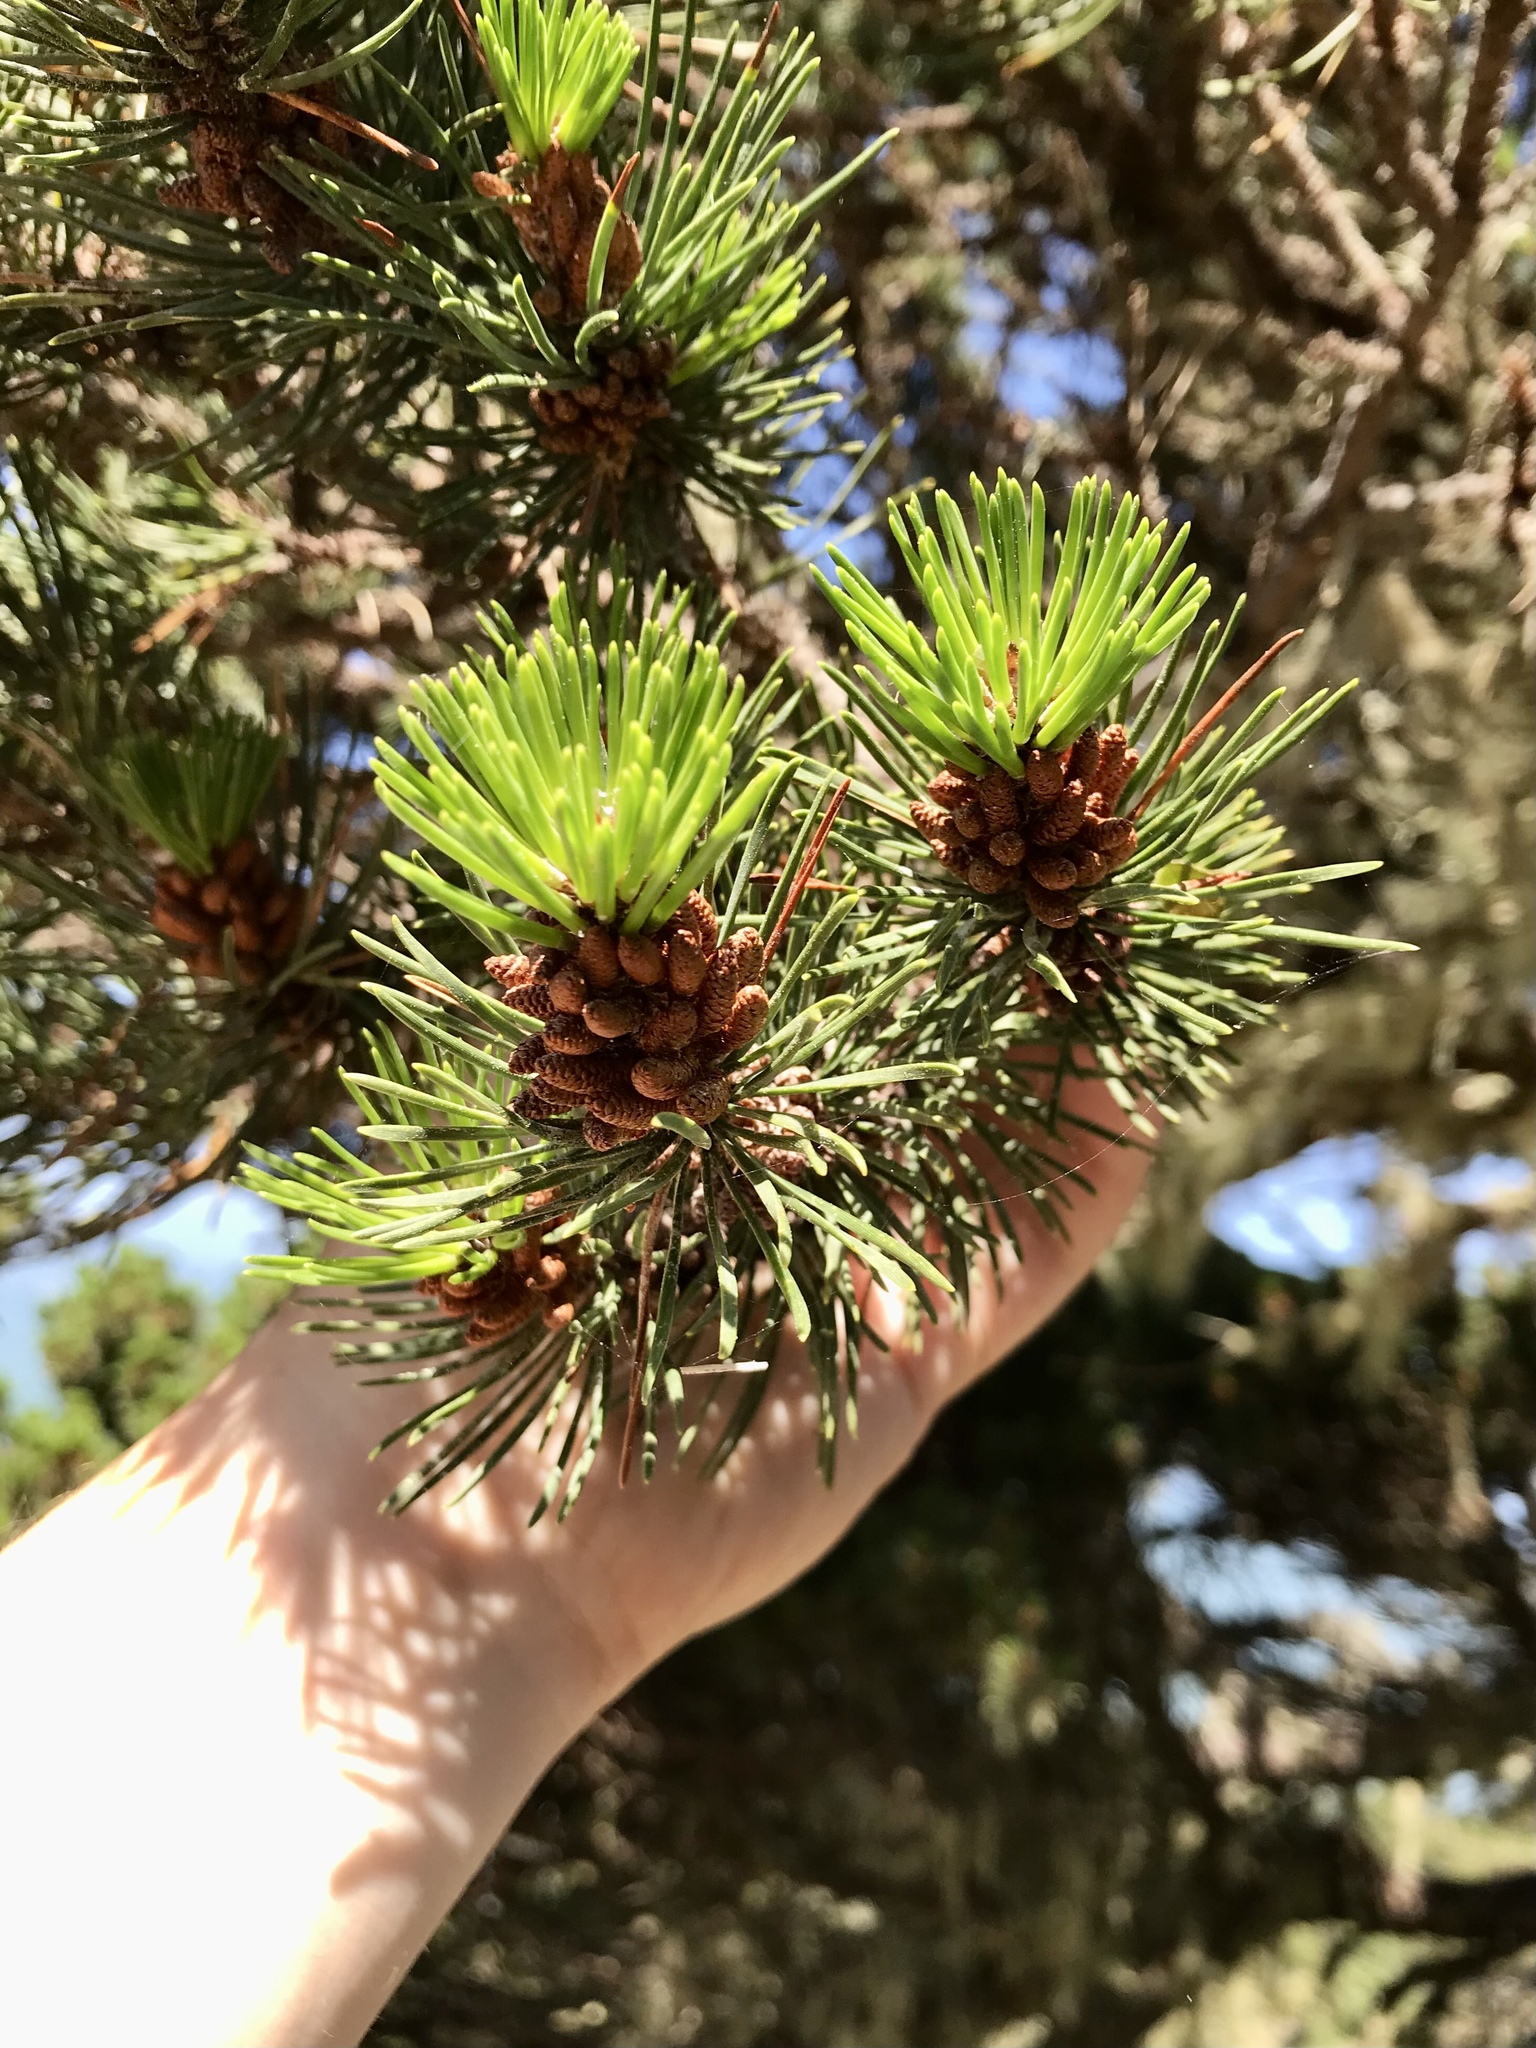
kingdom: Plantae
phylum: Tracheophyta
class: Pinopsida
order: Pinales
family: Pinaceae
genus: Pinus
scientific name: Pinus contorta
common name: Lodgepole pine
